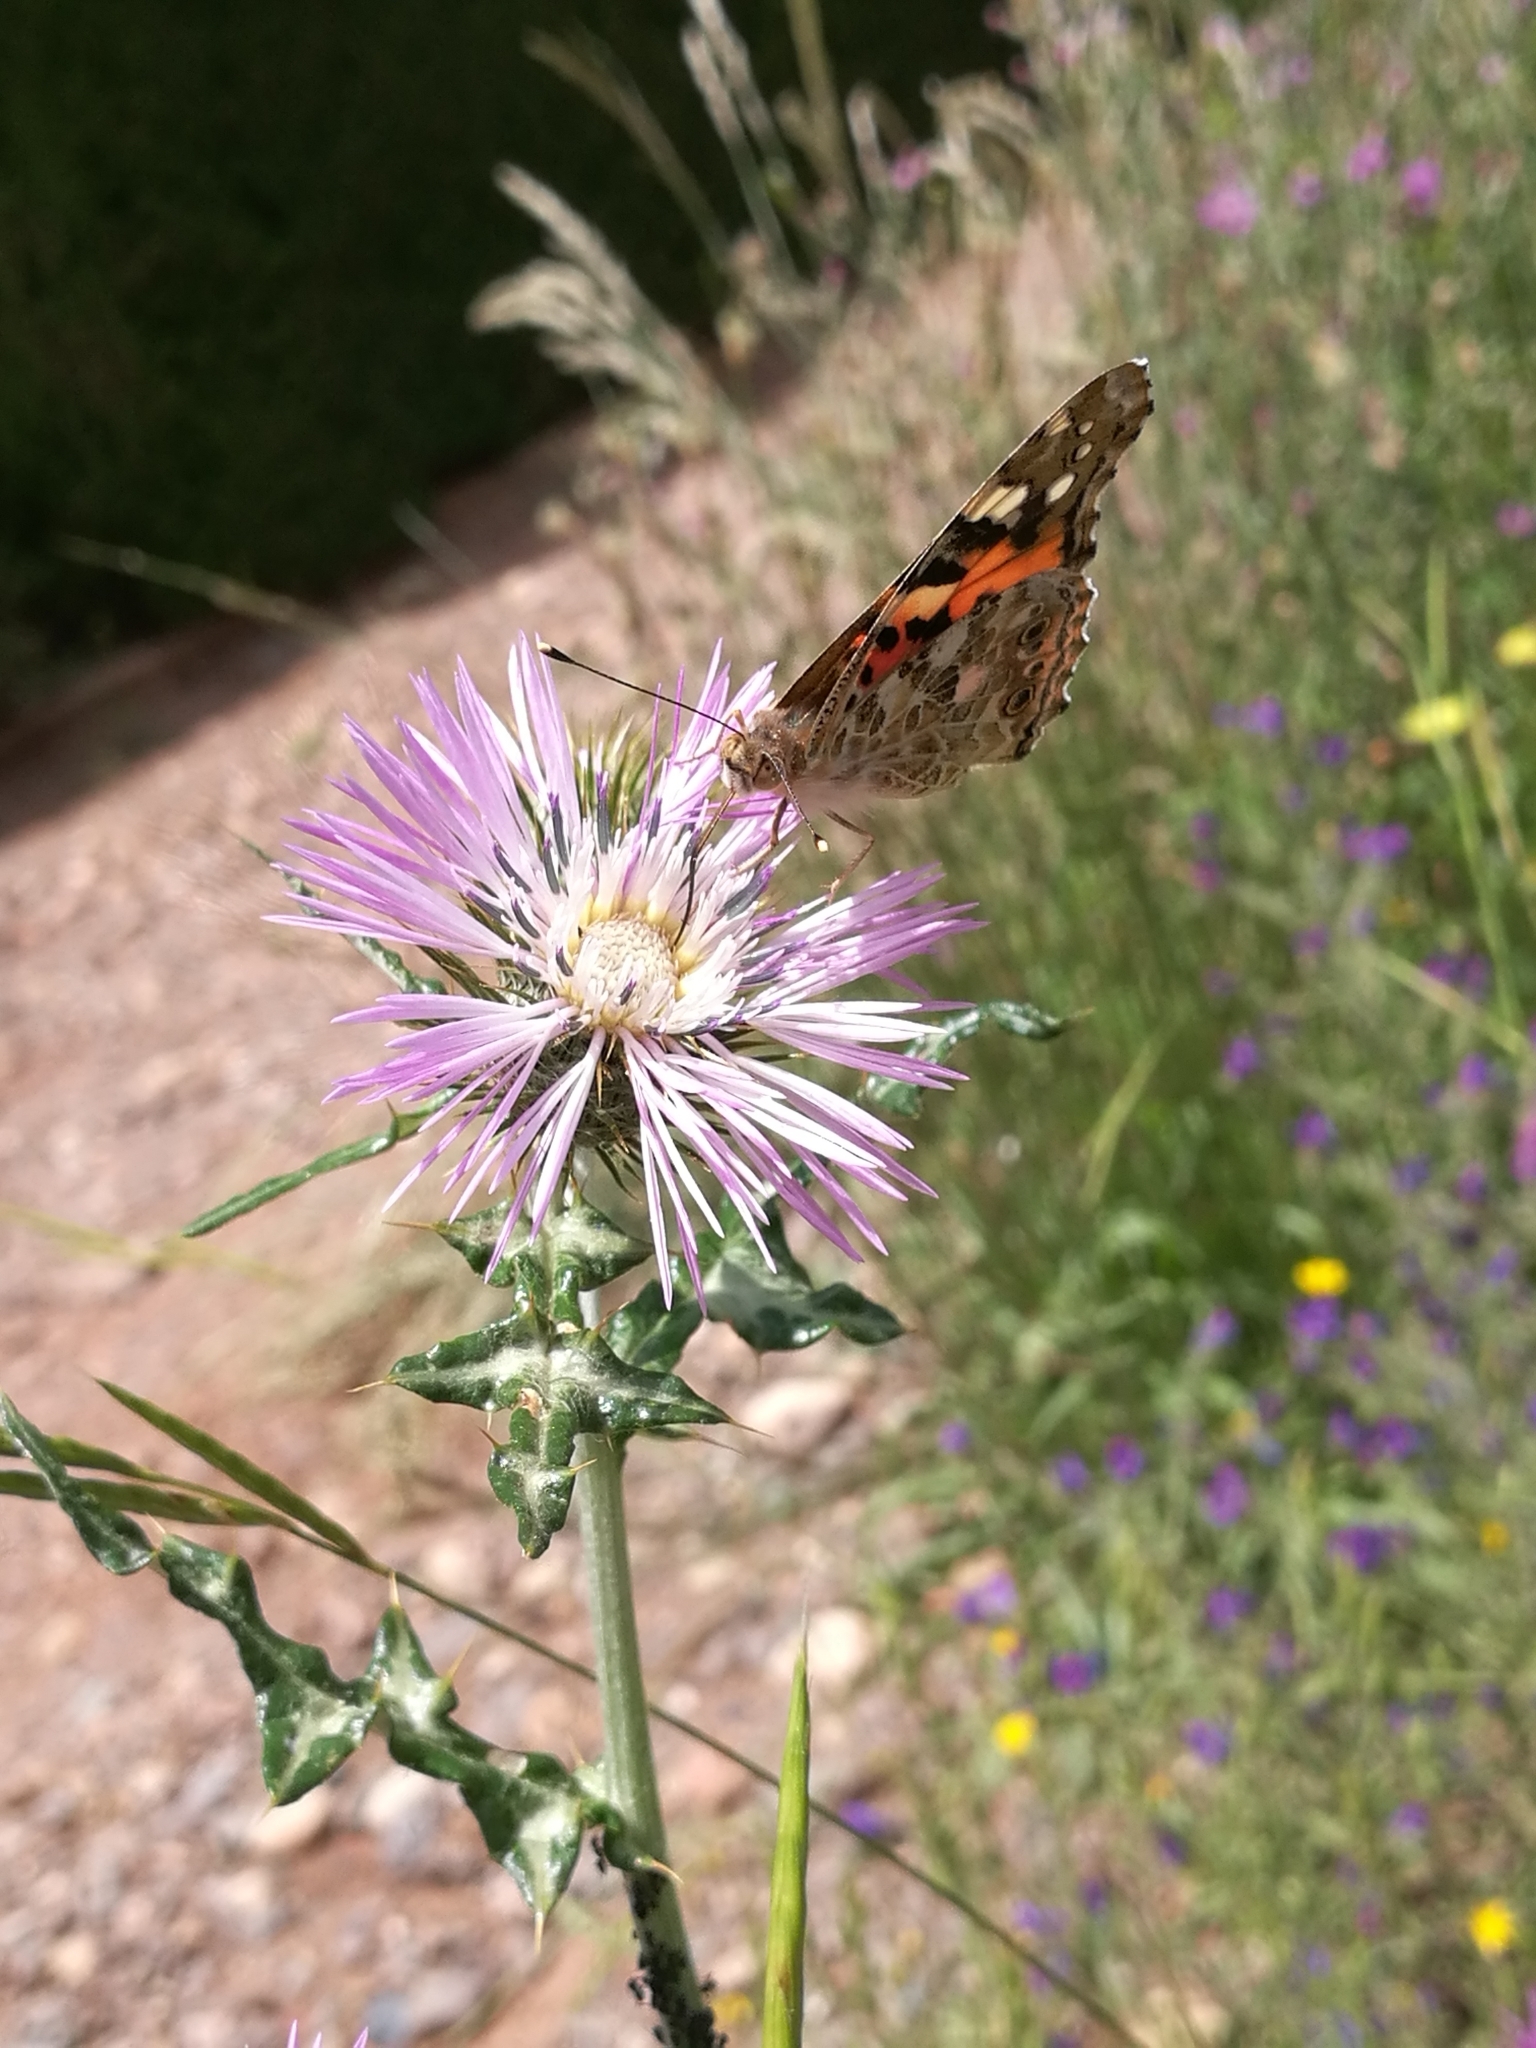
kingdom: Animalia
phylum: Arthropoda
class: Insecta
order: Lepidoptera
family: Nymphalidae
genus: Vanessa
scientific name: Vanessa cardui
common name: Painted lady
